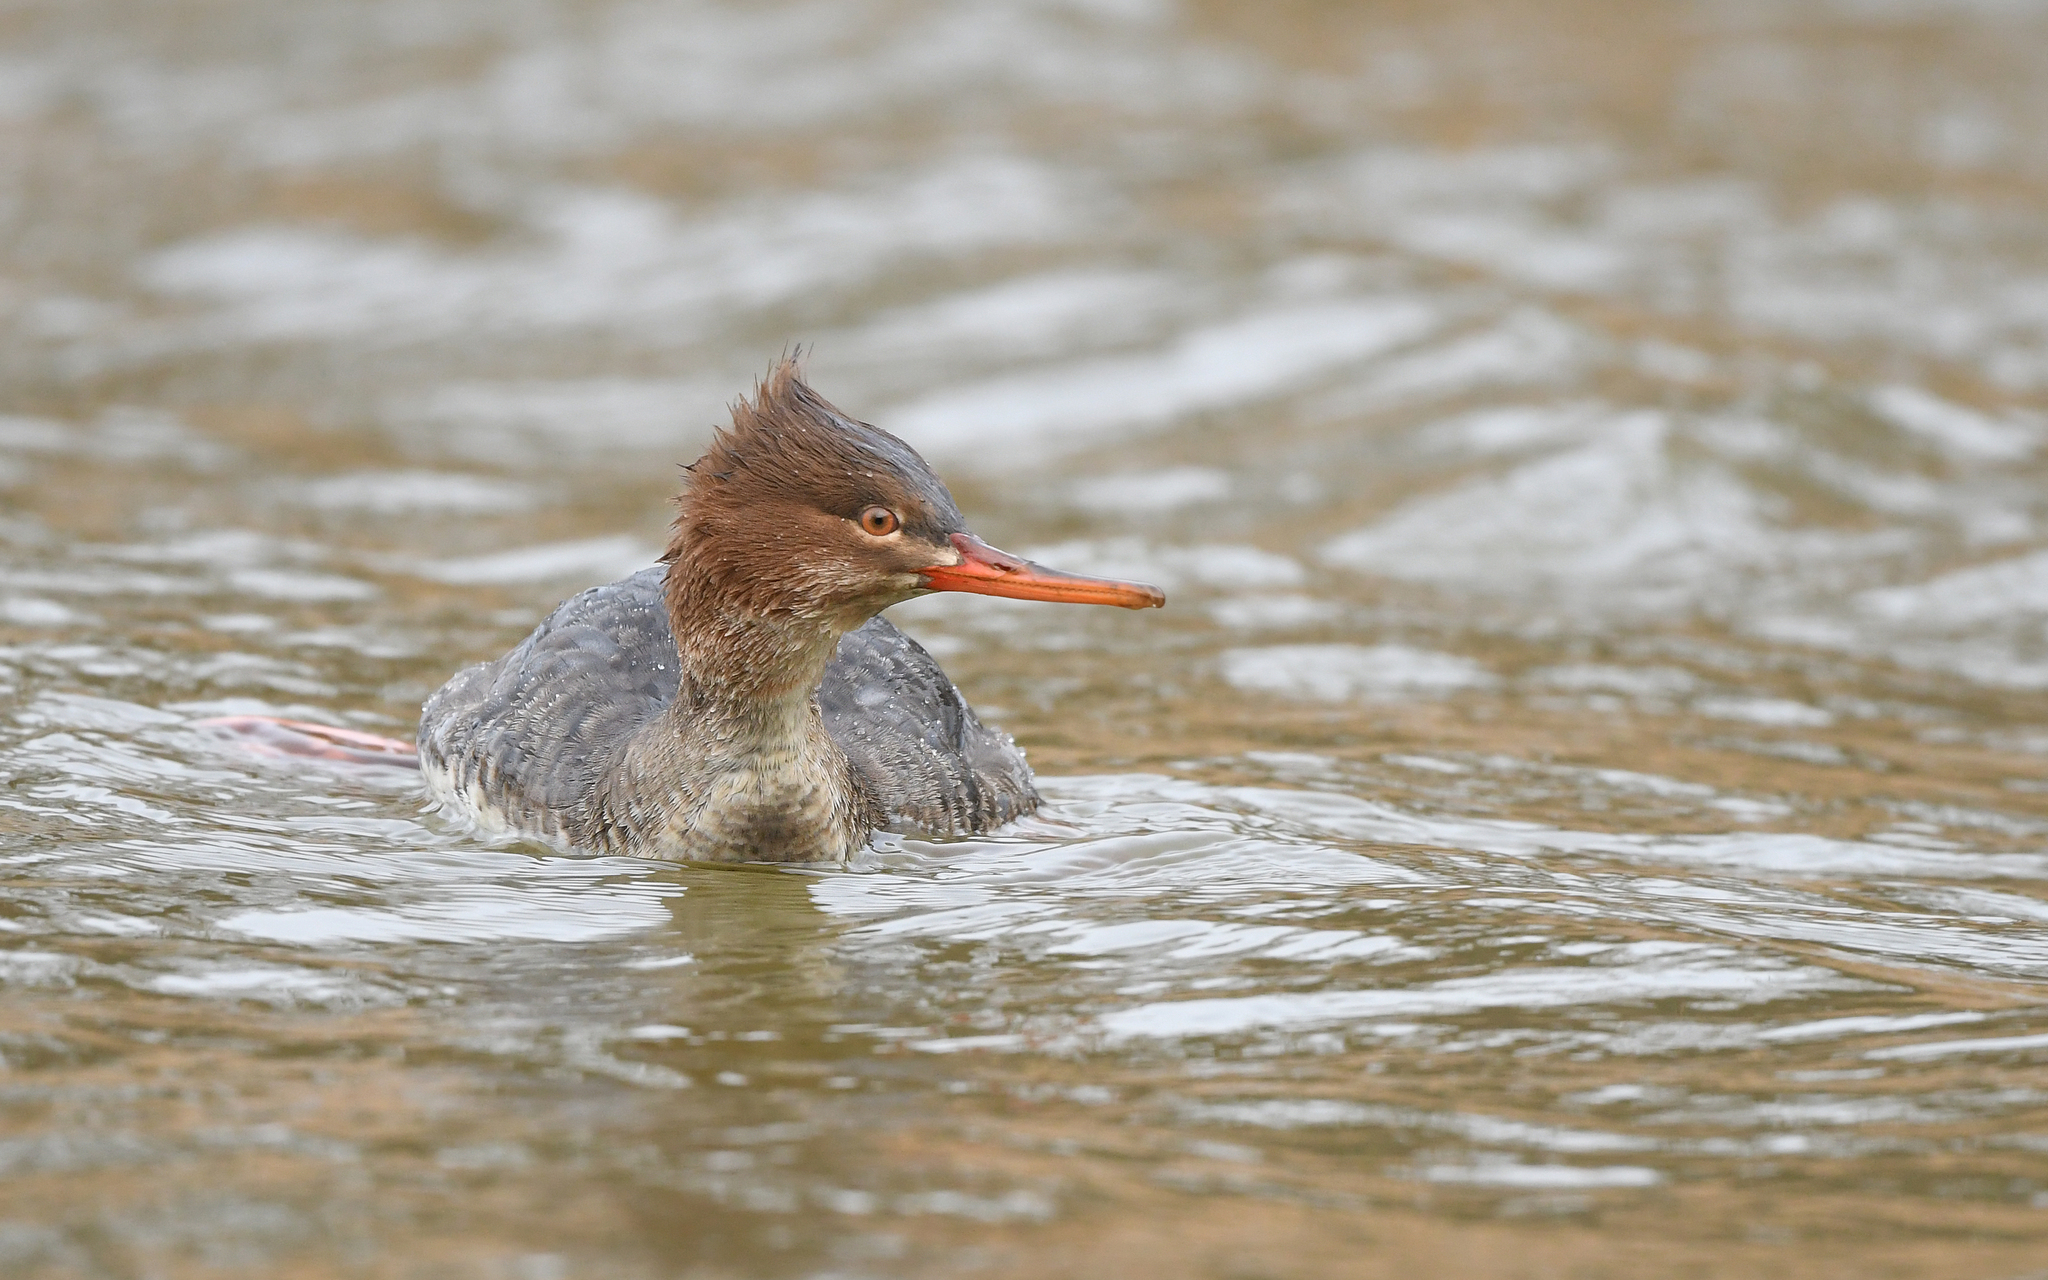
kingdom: Animalia
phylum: Chordata
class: Aves
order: Anseriformes
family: Anatidae
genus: Mergus
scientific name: Mergus serrator
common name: Red-breasted merganser
